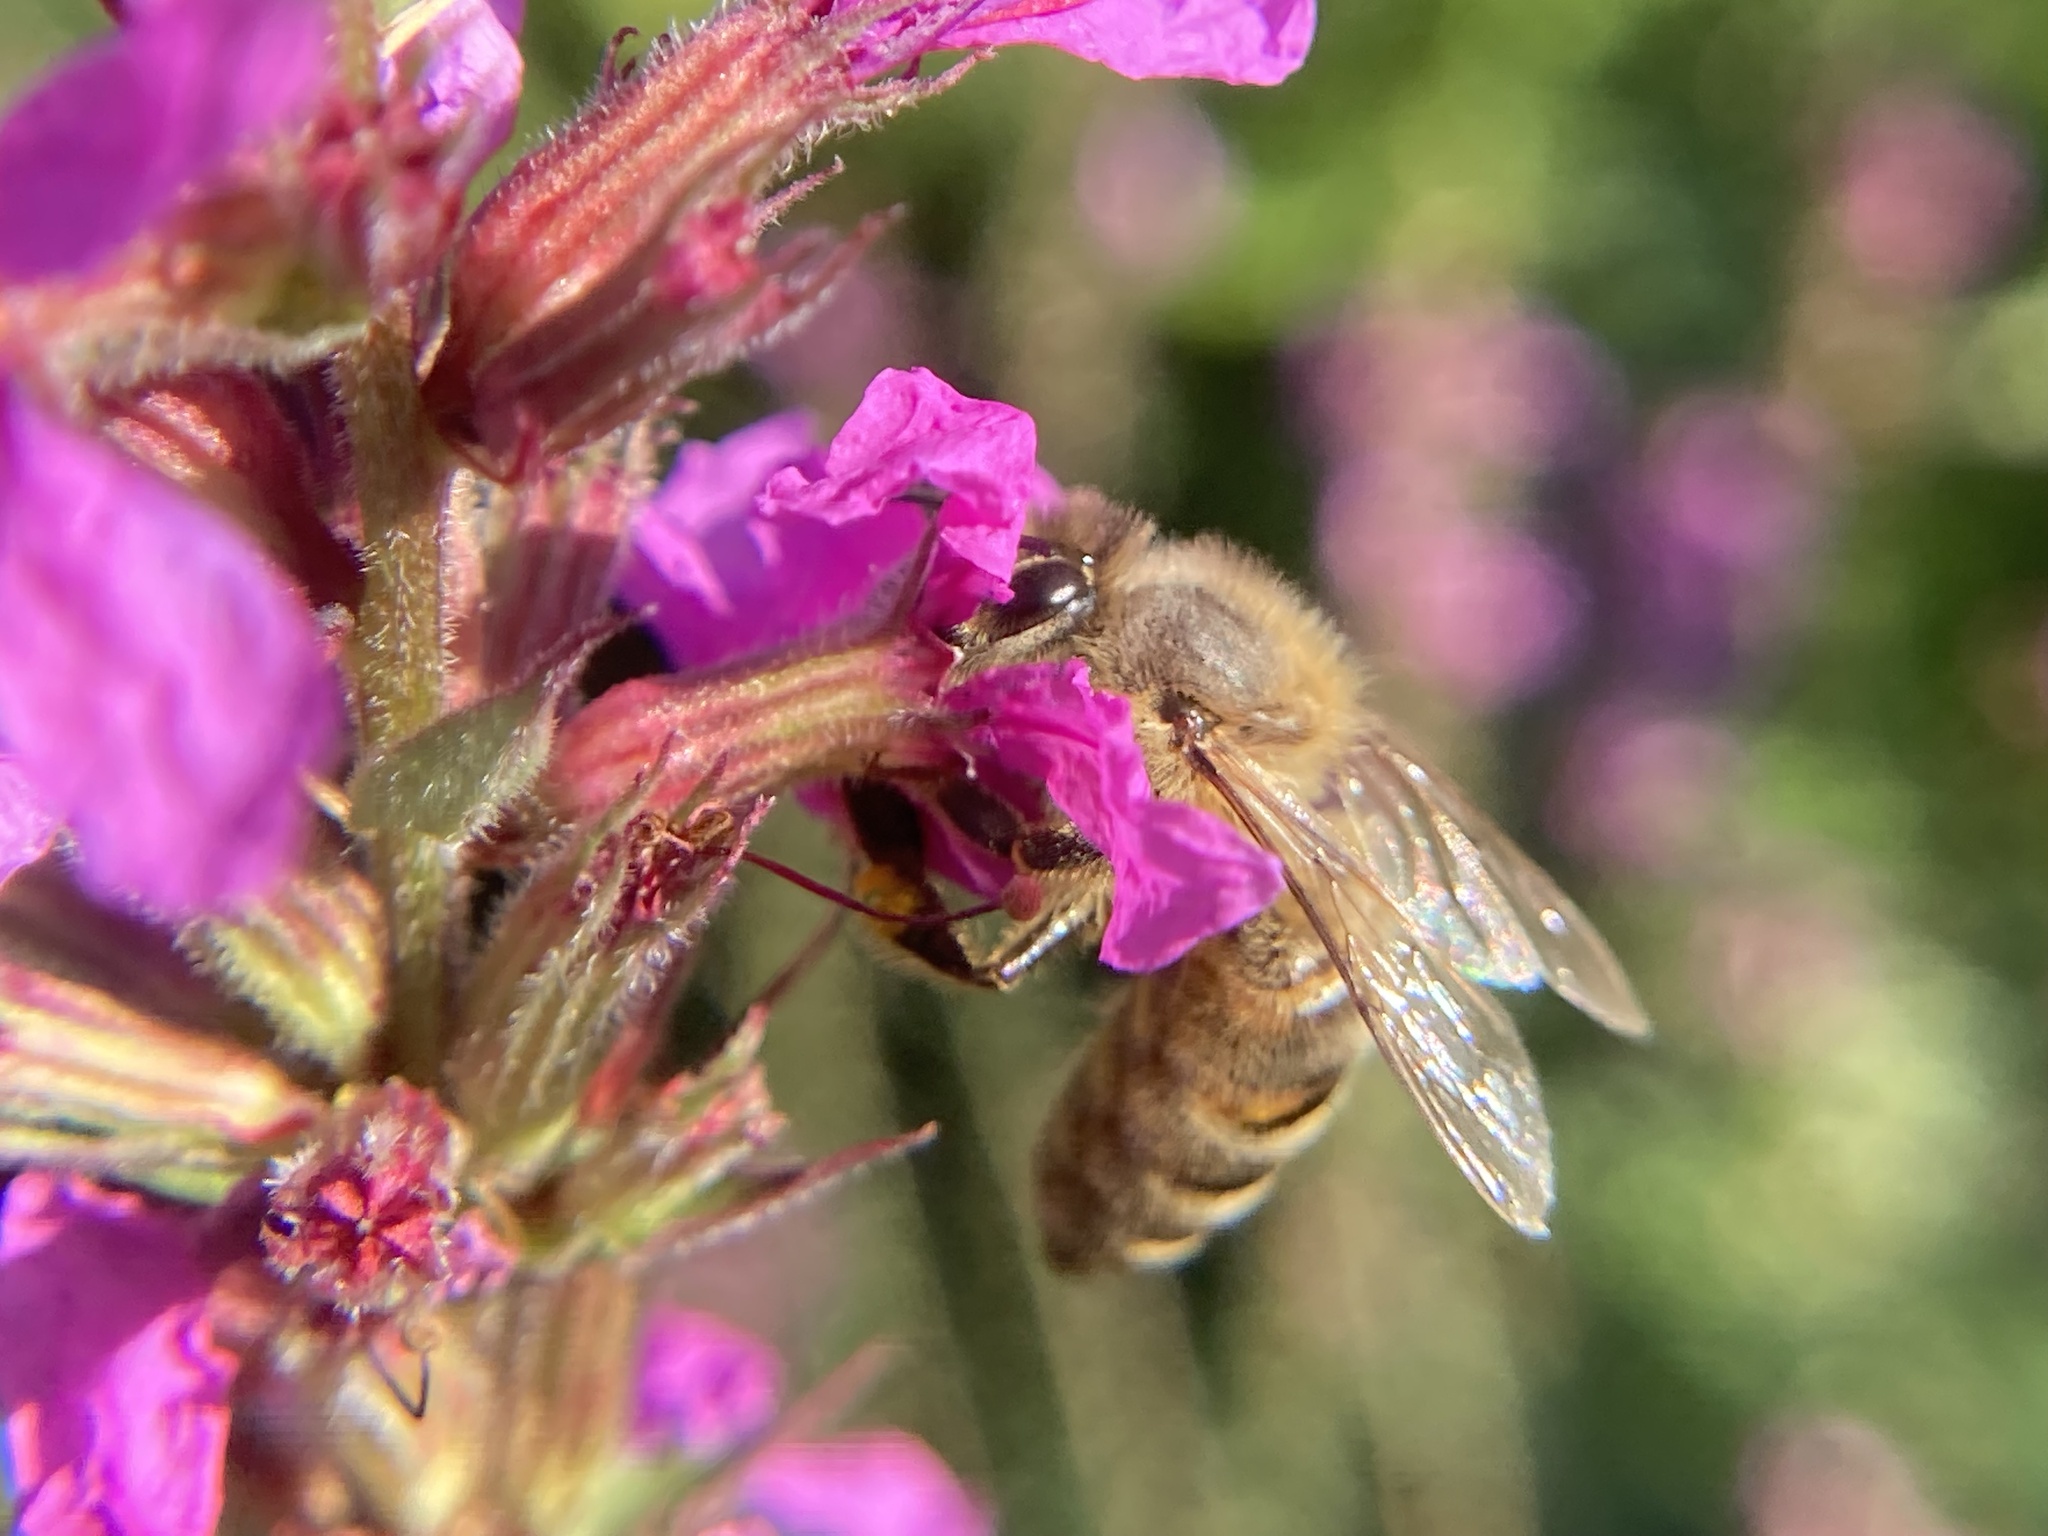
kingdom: Animalia
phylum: Arthropoda
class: Insecta
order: Hymenoptera
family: Apidae
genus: Apis
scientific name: Apis mellifera
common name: Honey bee
